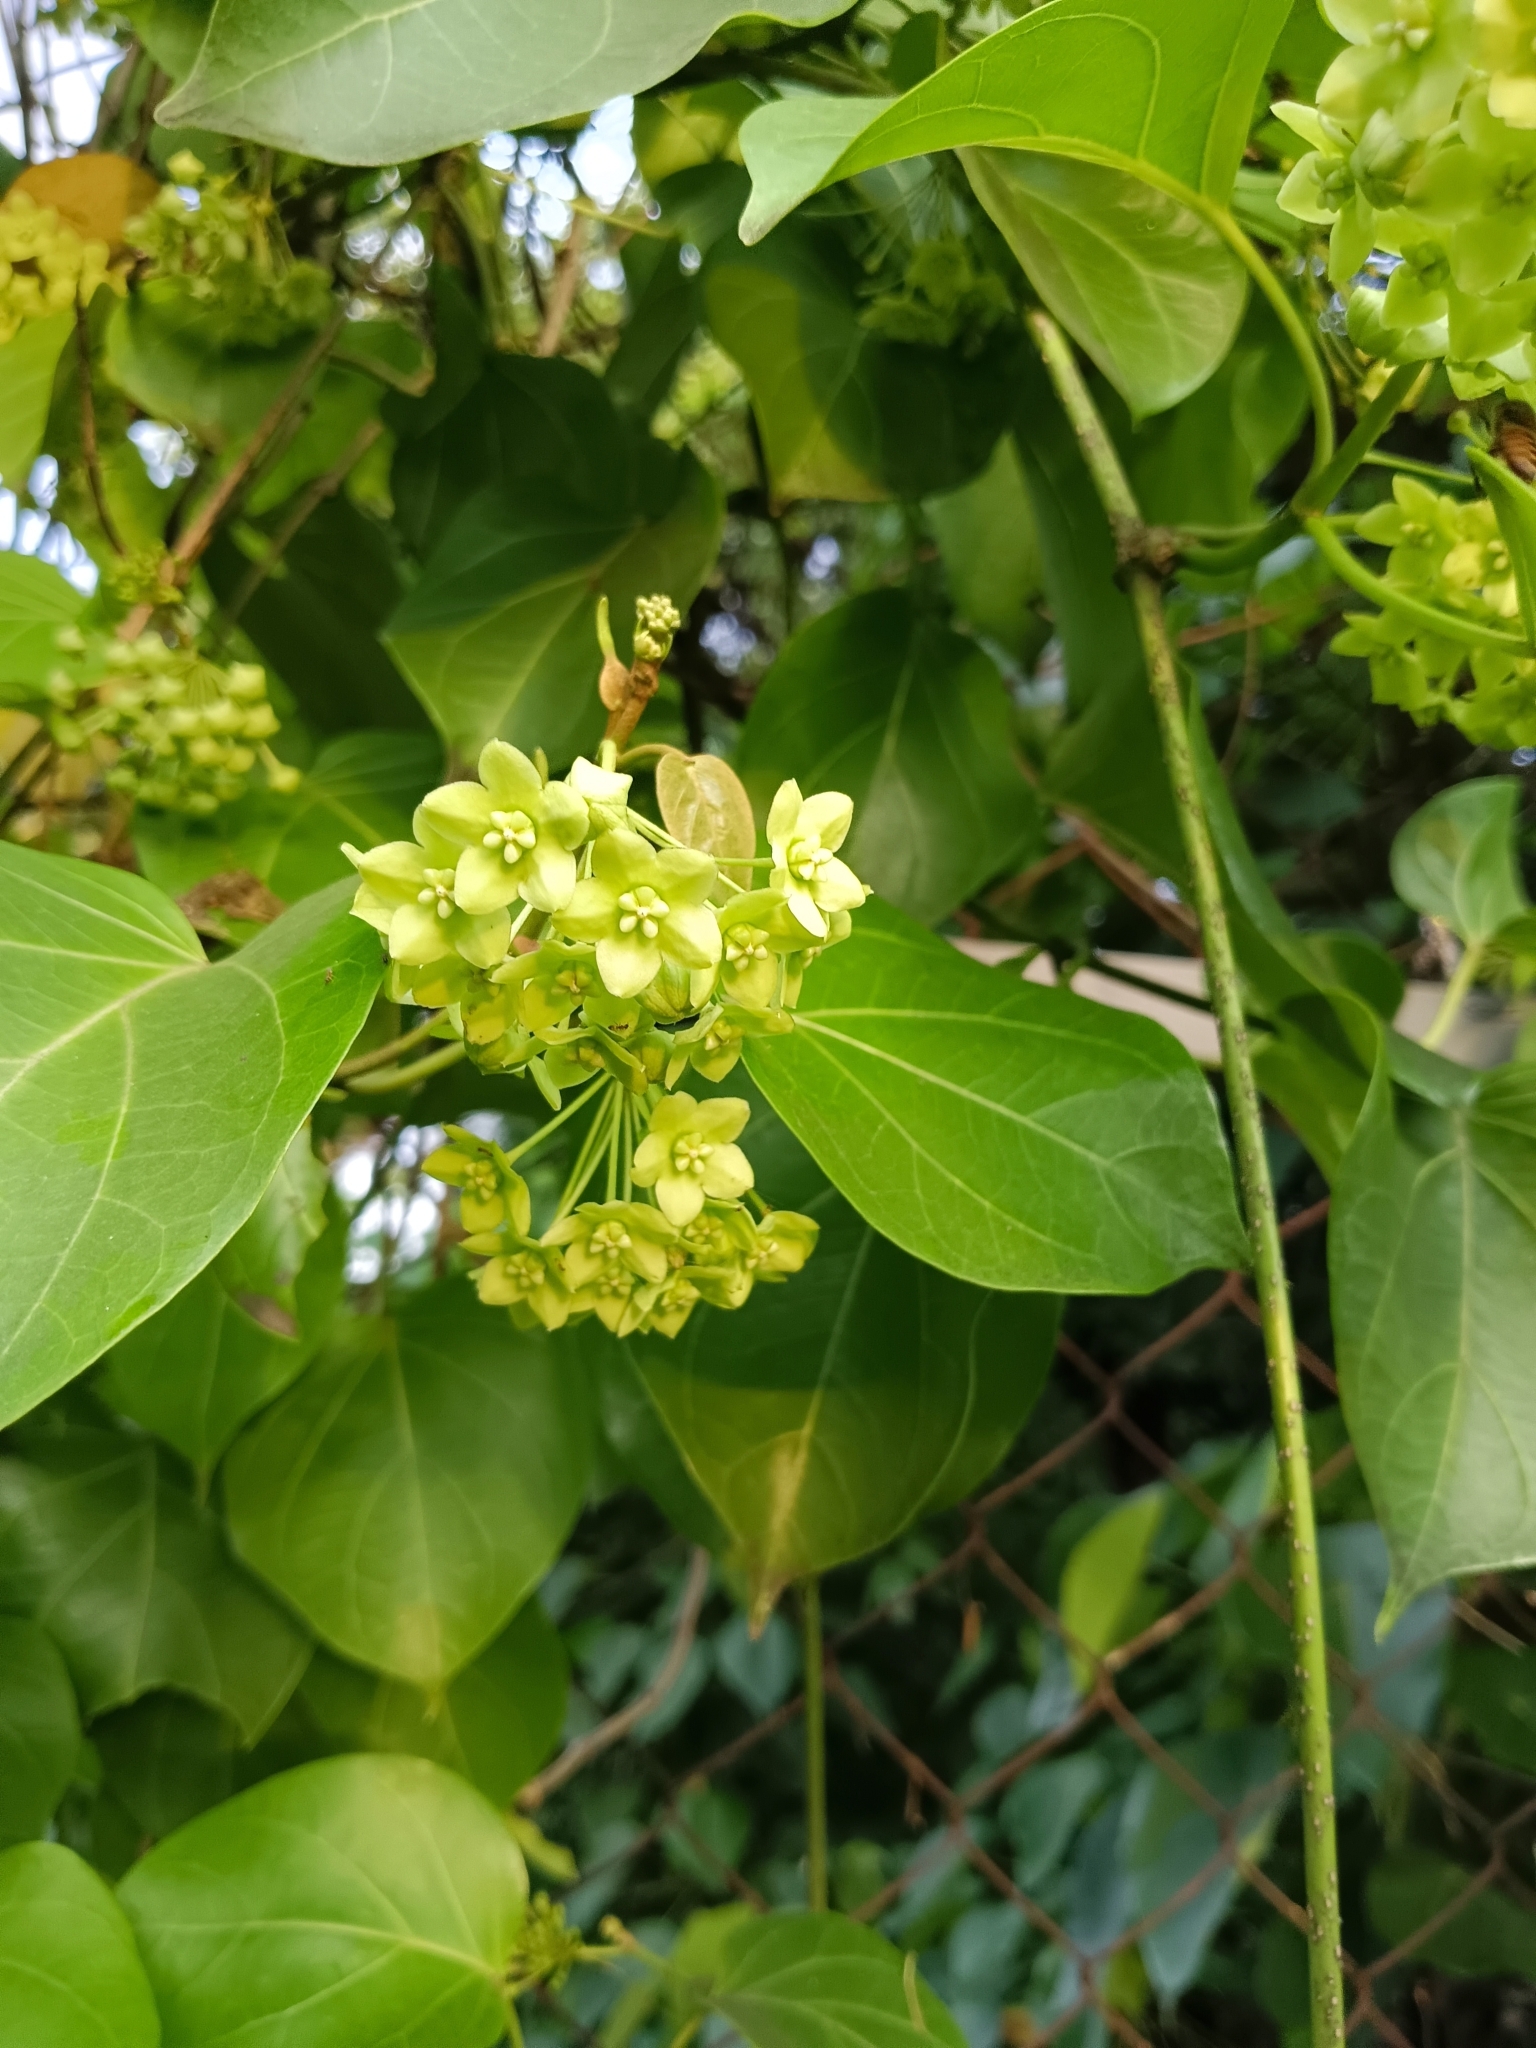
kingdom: Plantae
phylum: Tracheophyta
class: Magnoliopsida
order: Gentianales
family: Apocynaceae
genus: Stephanotis
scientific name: Stephanotis volubilis
